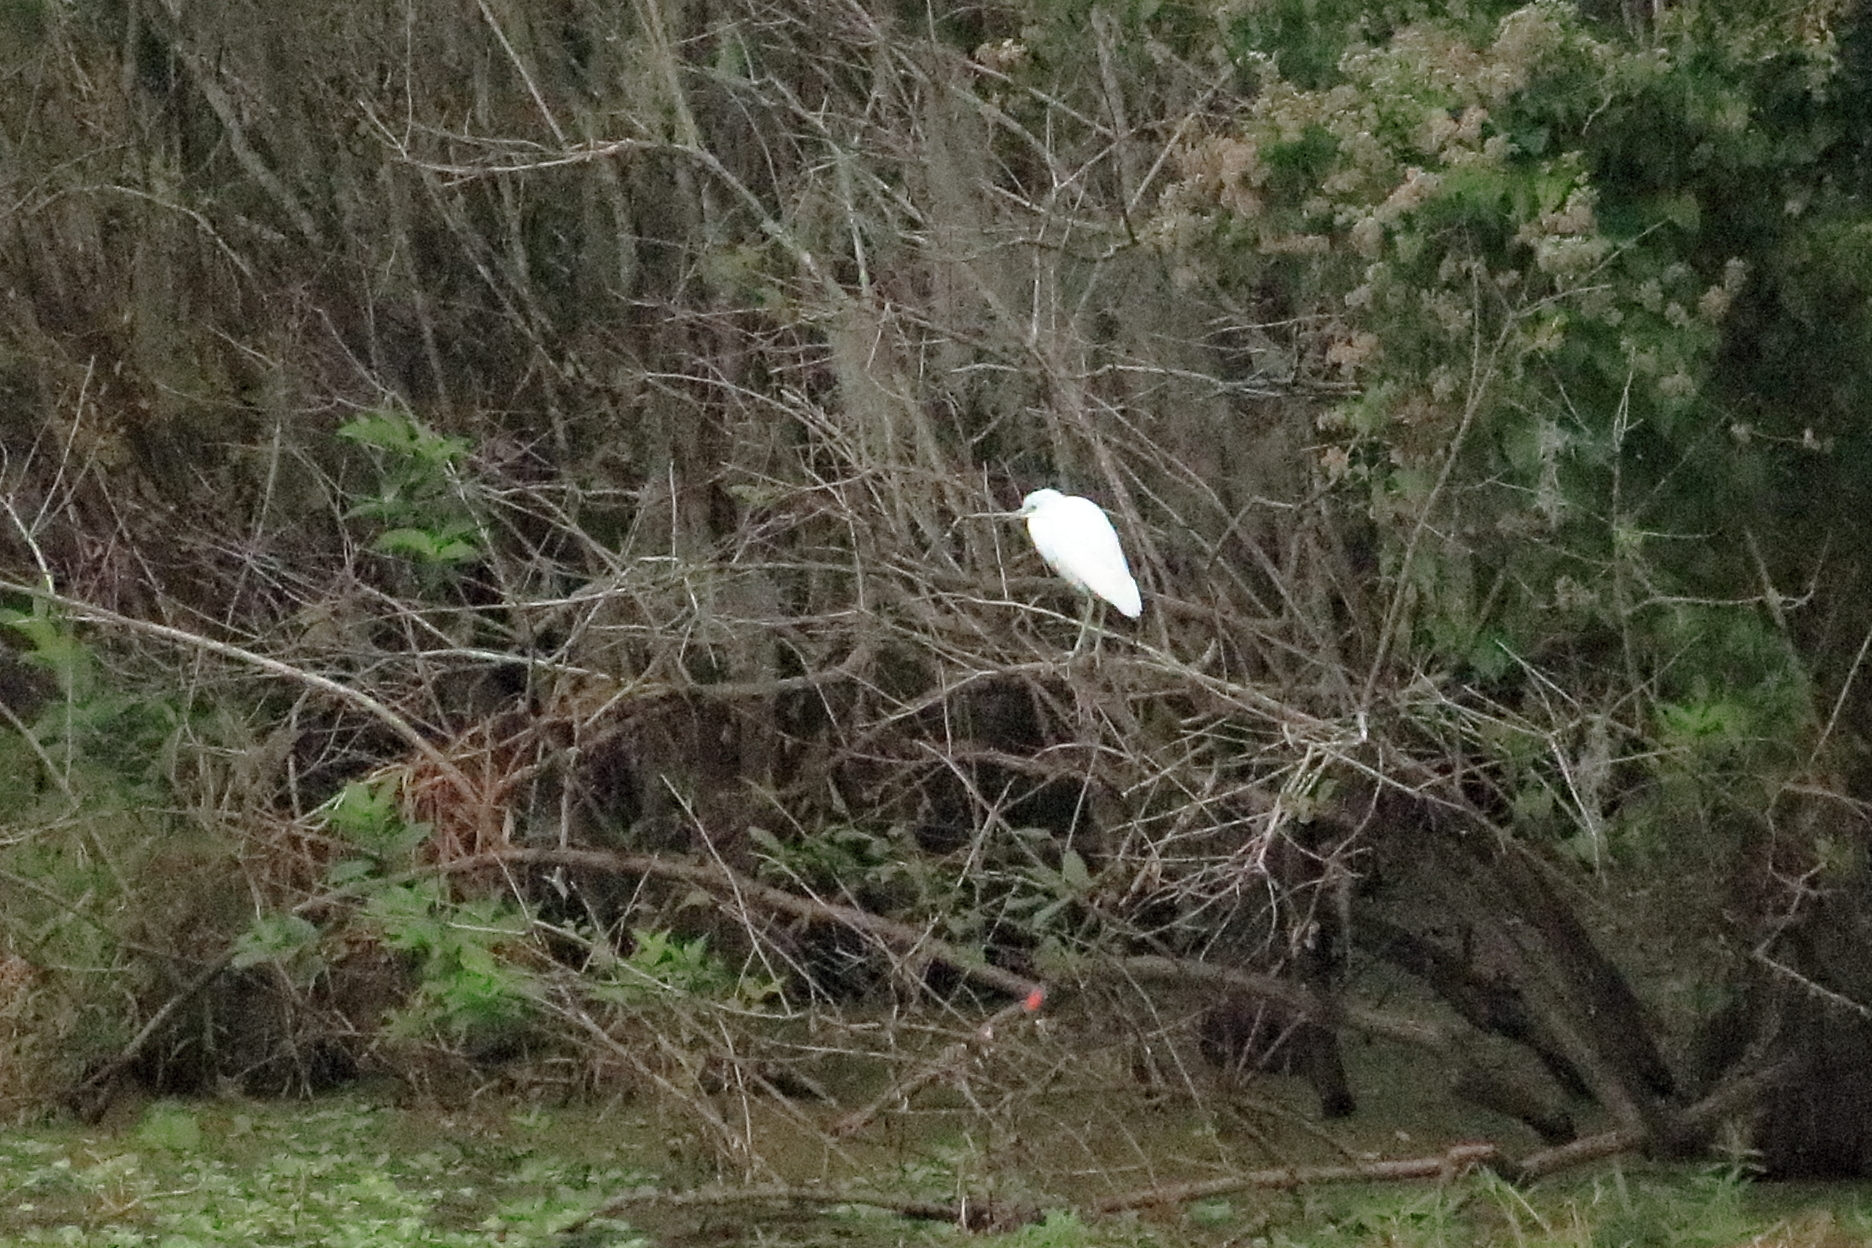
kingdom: Animalia
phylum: Chordata
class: Aves
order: Pelecaniformes
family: Ardeidae
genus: Egretta
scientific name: Egretta caerulea
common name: Little blue heron
